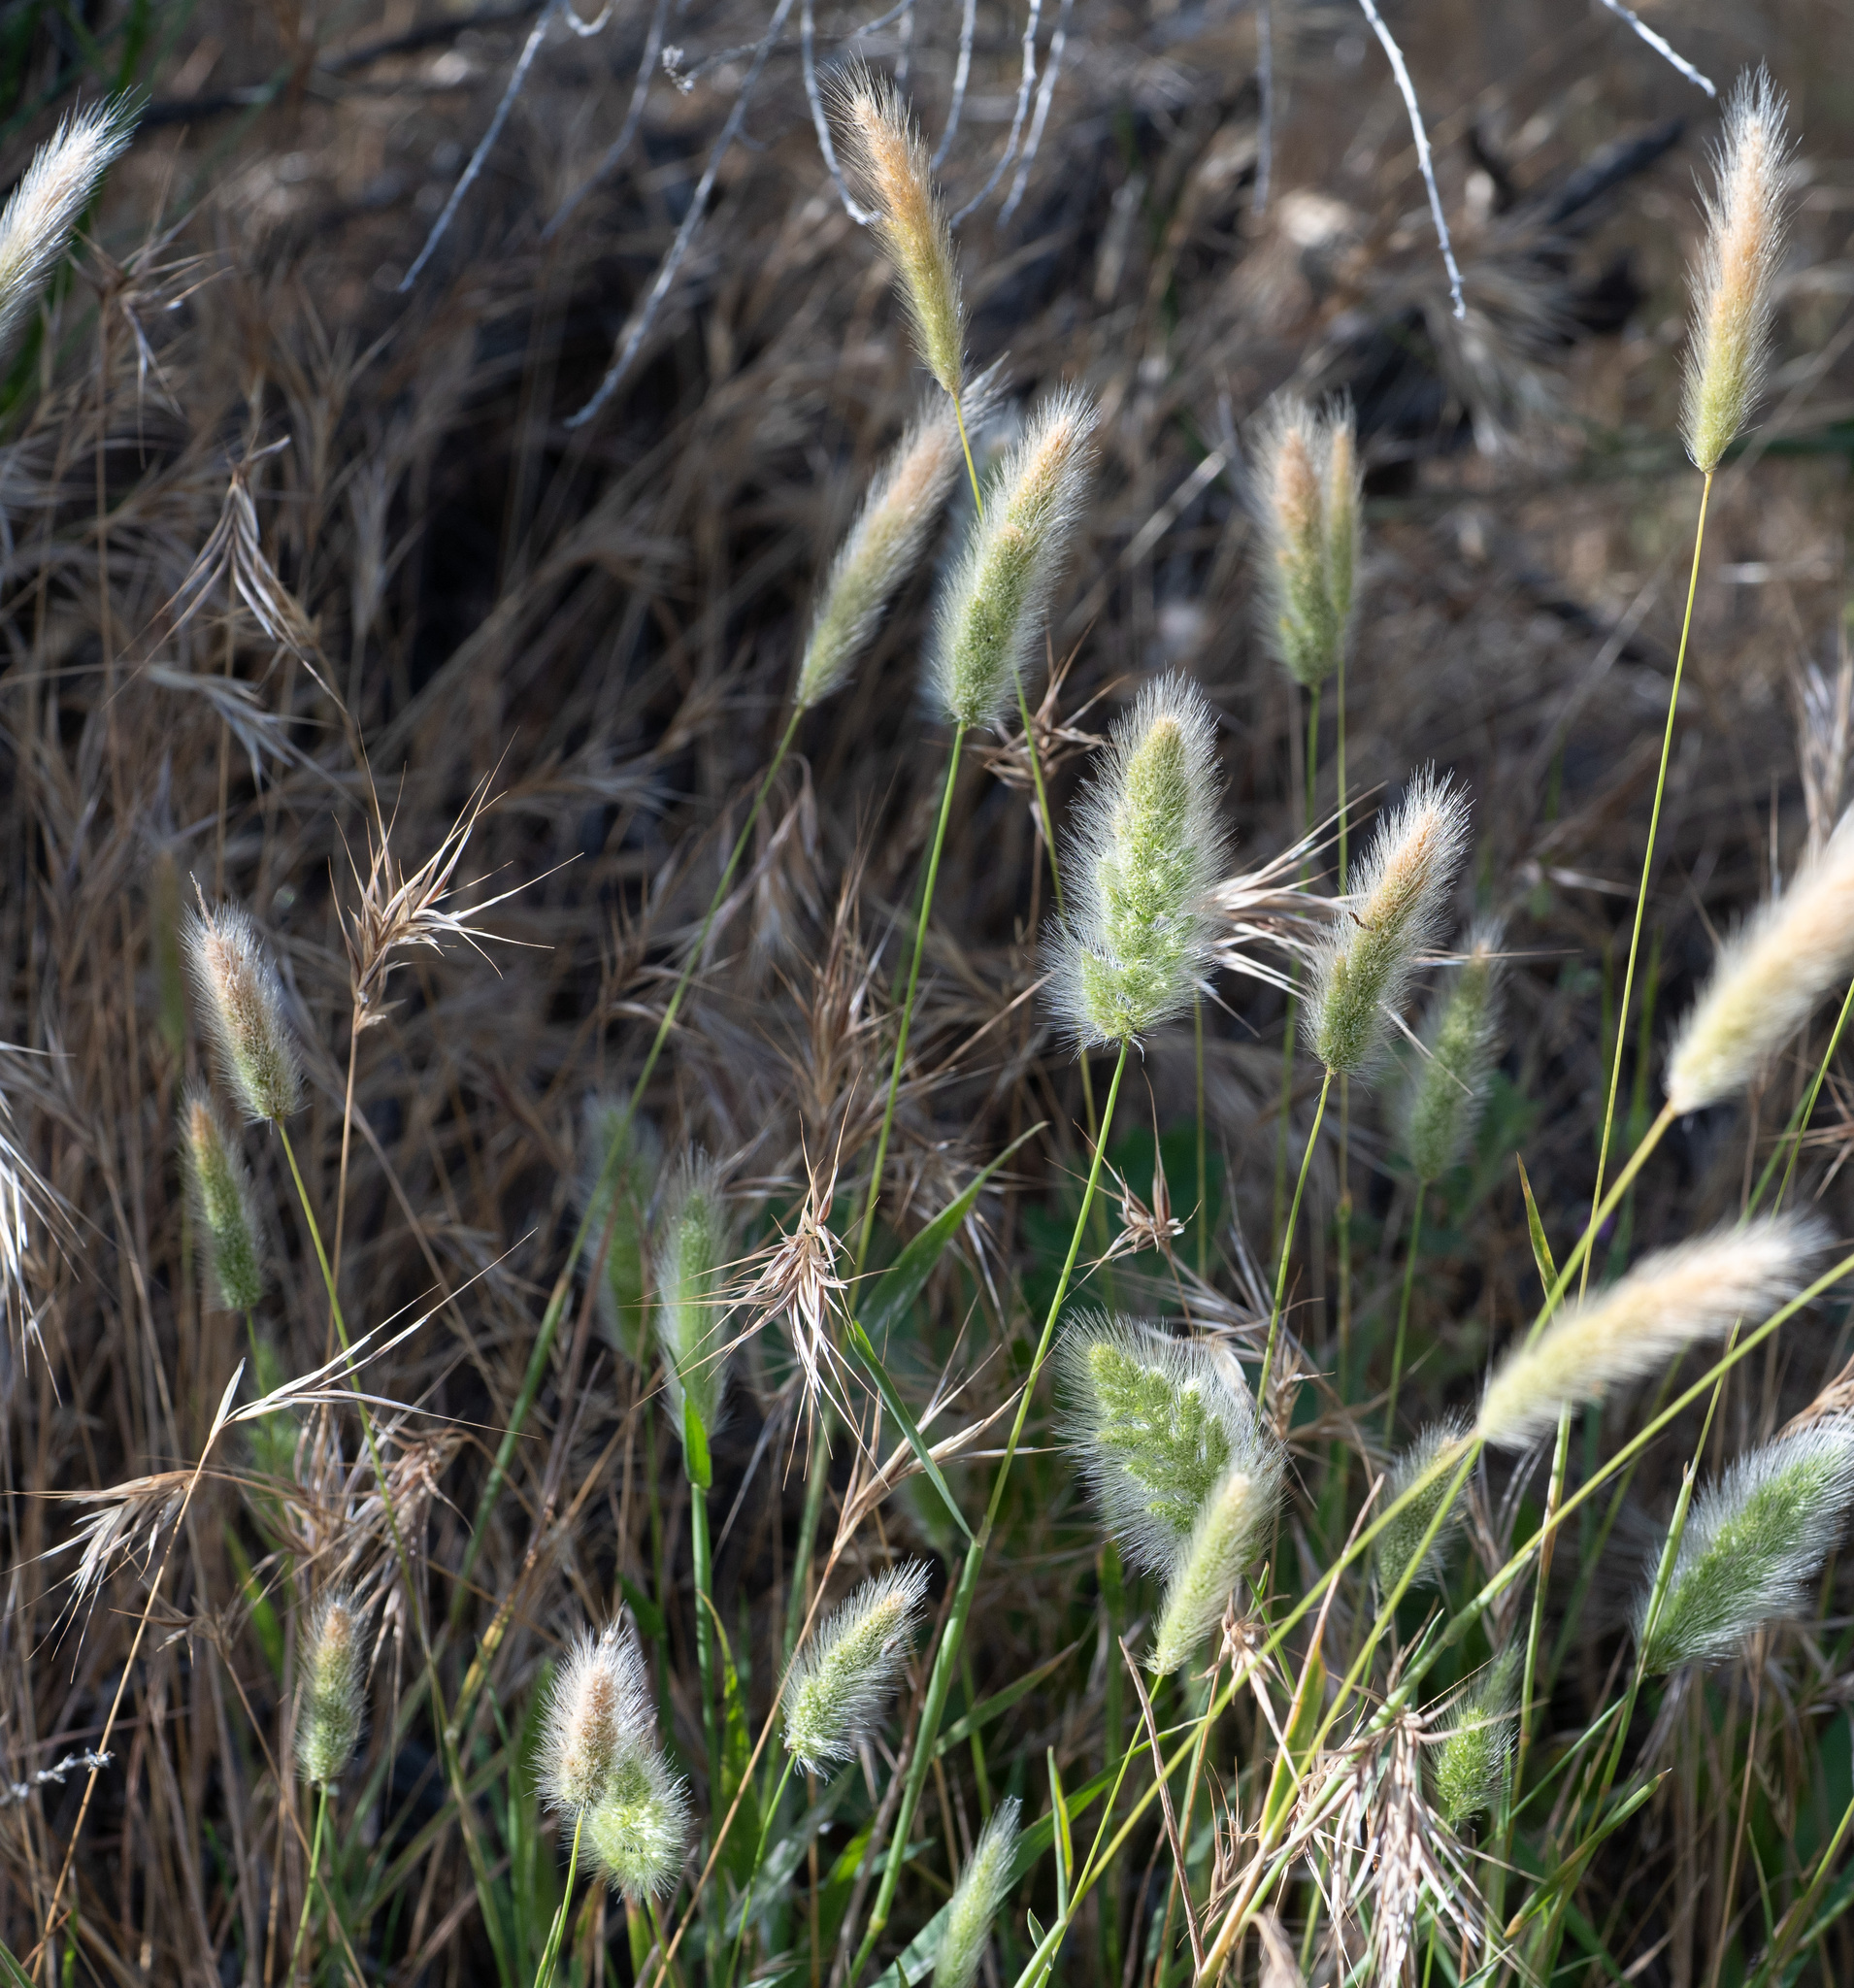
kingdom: Plantae
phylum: Tracheophyta
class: Liliopsida
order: Poales
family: Poaceae
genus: Polypogon
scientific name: Polypogon monspeliensis
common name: Annual rabbitsfoot grass
